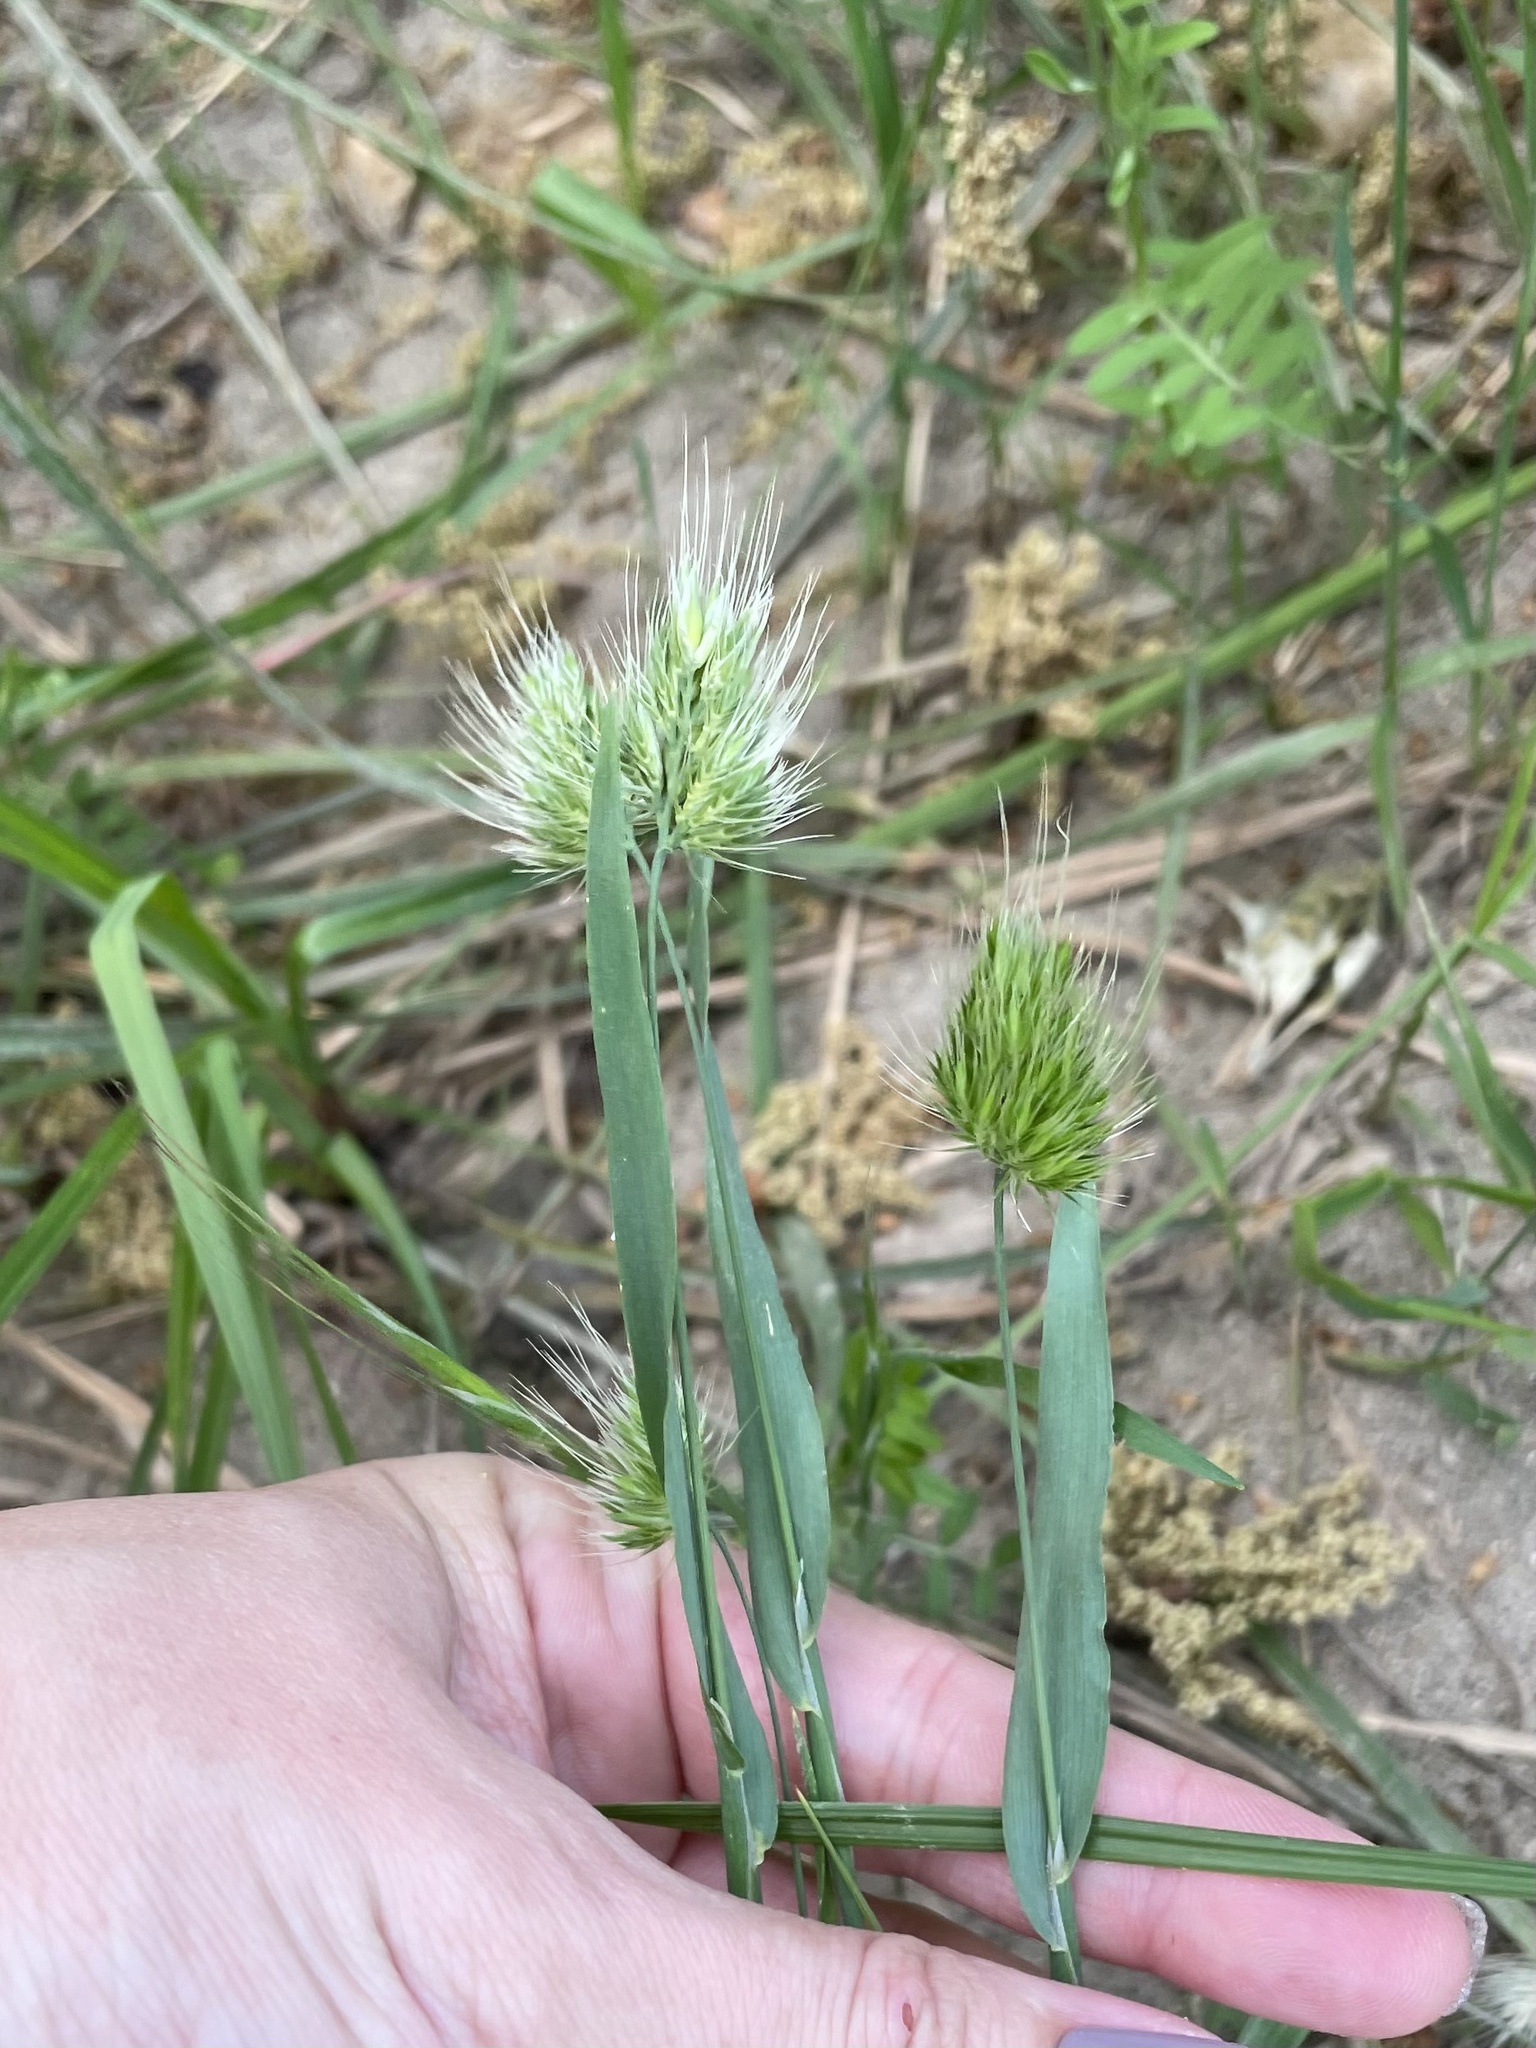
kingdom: Plantae
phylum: Tracheophyta
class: Liliopsida
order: Poales
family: Poaceae
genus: Cynosurus
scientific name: Cynosurus echinatus
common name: Rough dog's-tail
